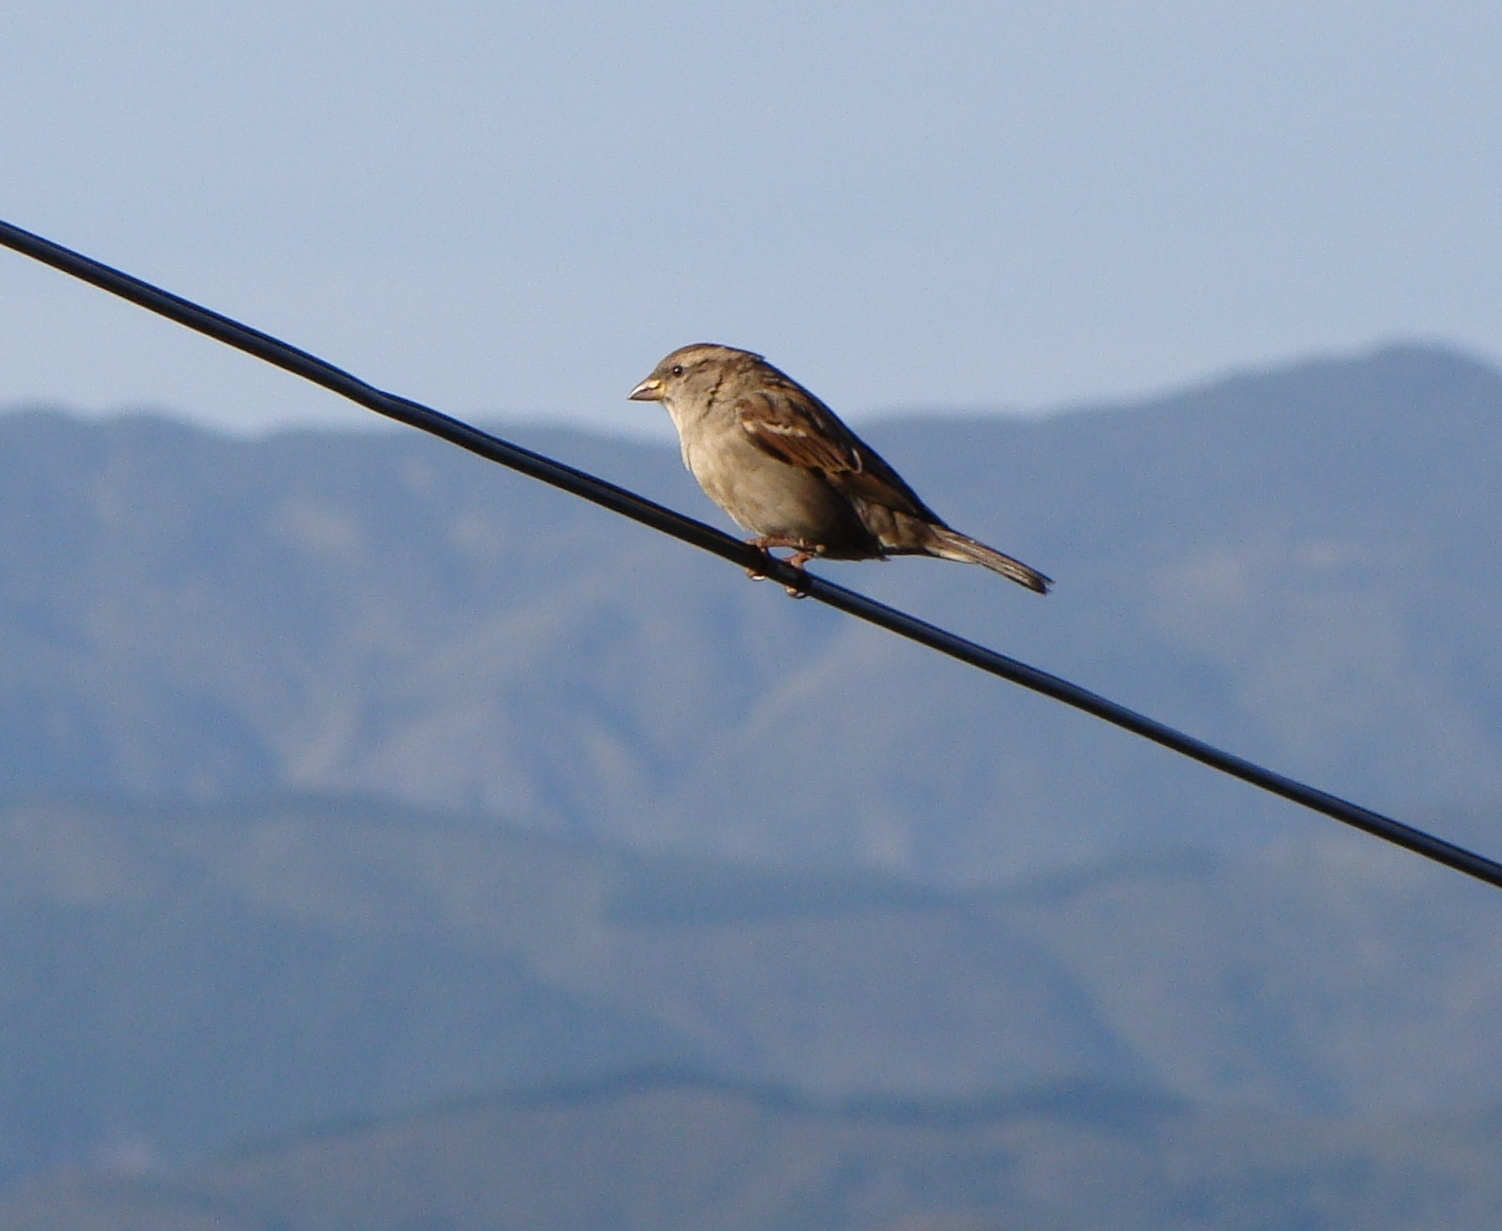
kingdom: Animalia
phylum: Chordata
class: Aves
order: Passeriformes
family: Passeridae
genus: Passer
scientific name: Passer domesticus
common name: House sparrow
